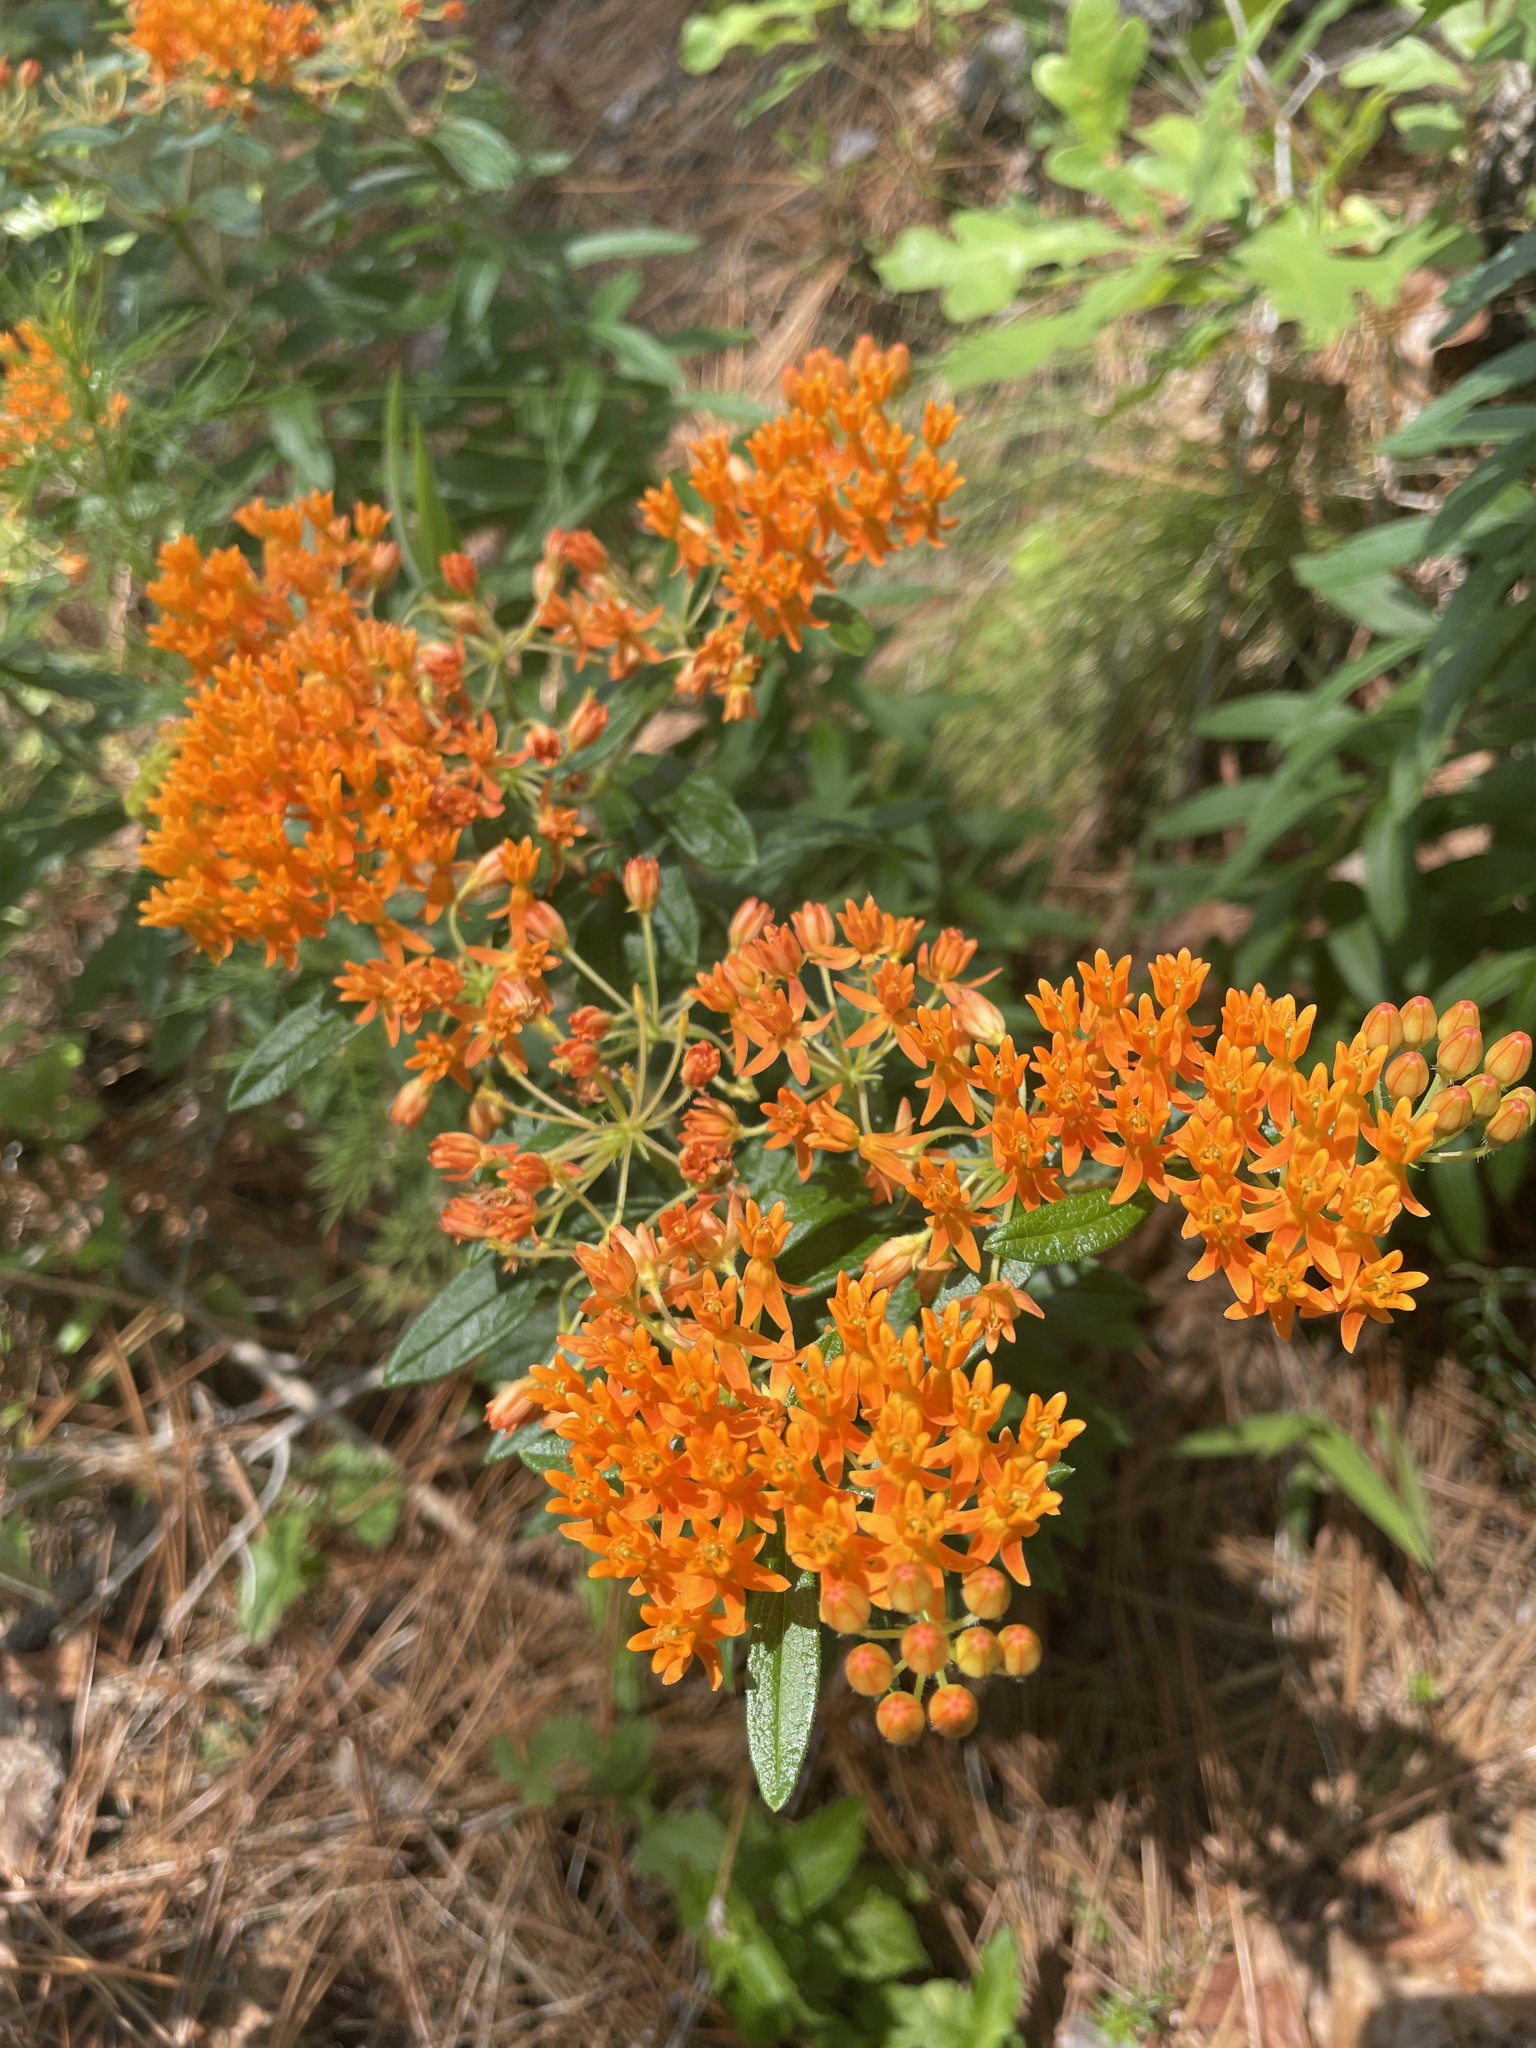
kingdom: Plantae
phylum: Tracheophyta
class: Magnoliopsida
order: Gentianales
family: Apocynaceae
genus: Asclepias
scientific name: Asclepias tuberosa
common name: Butterfly milkweed
